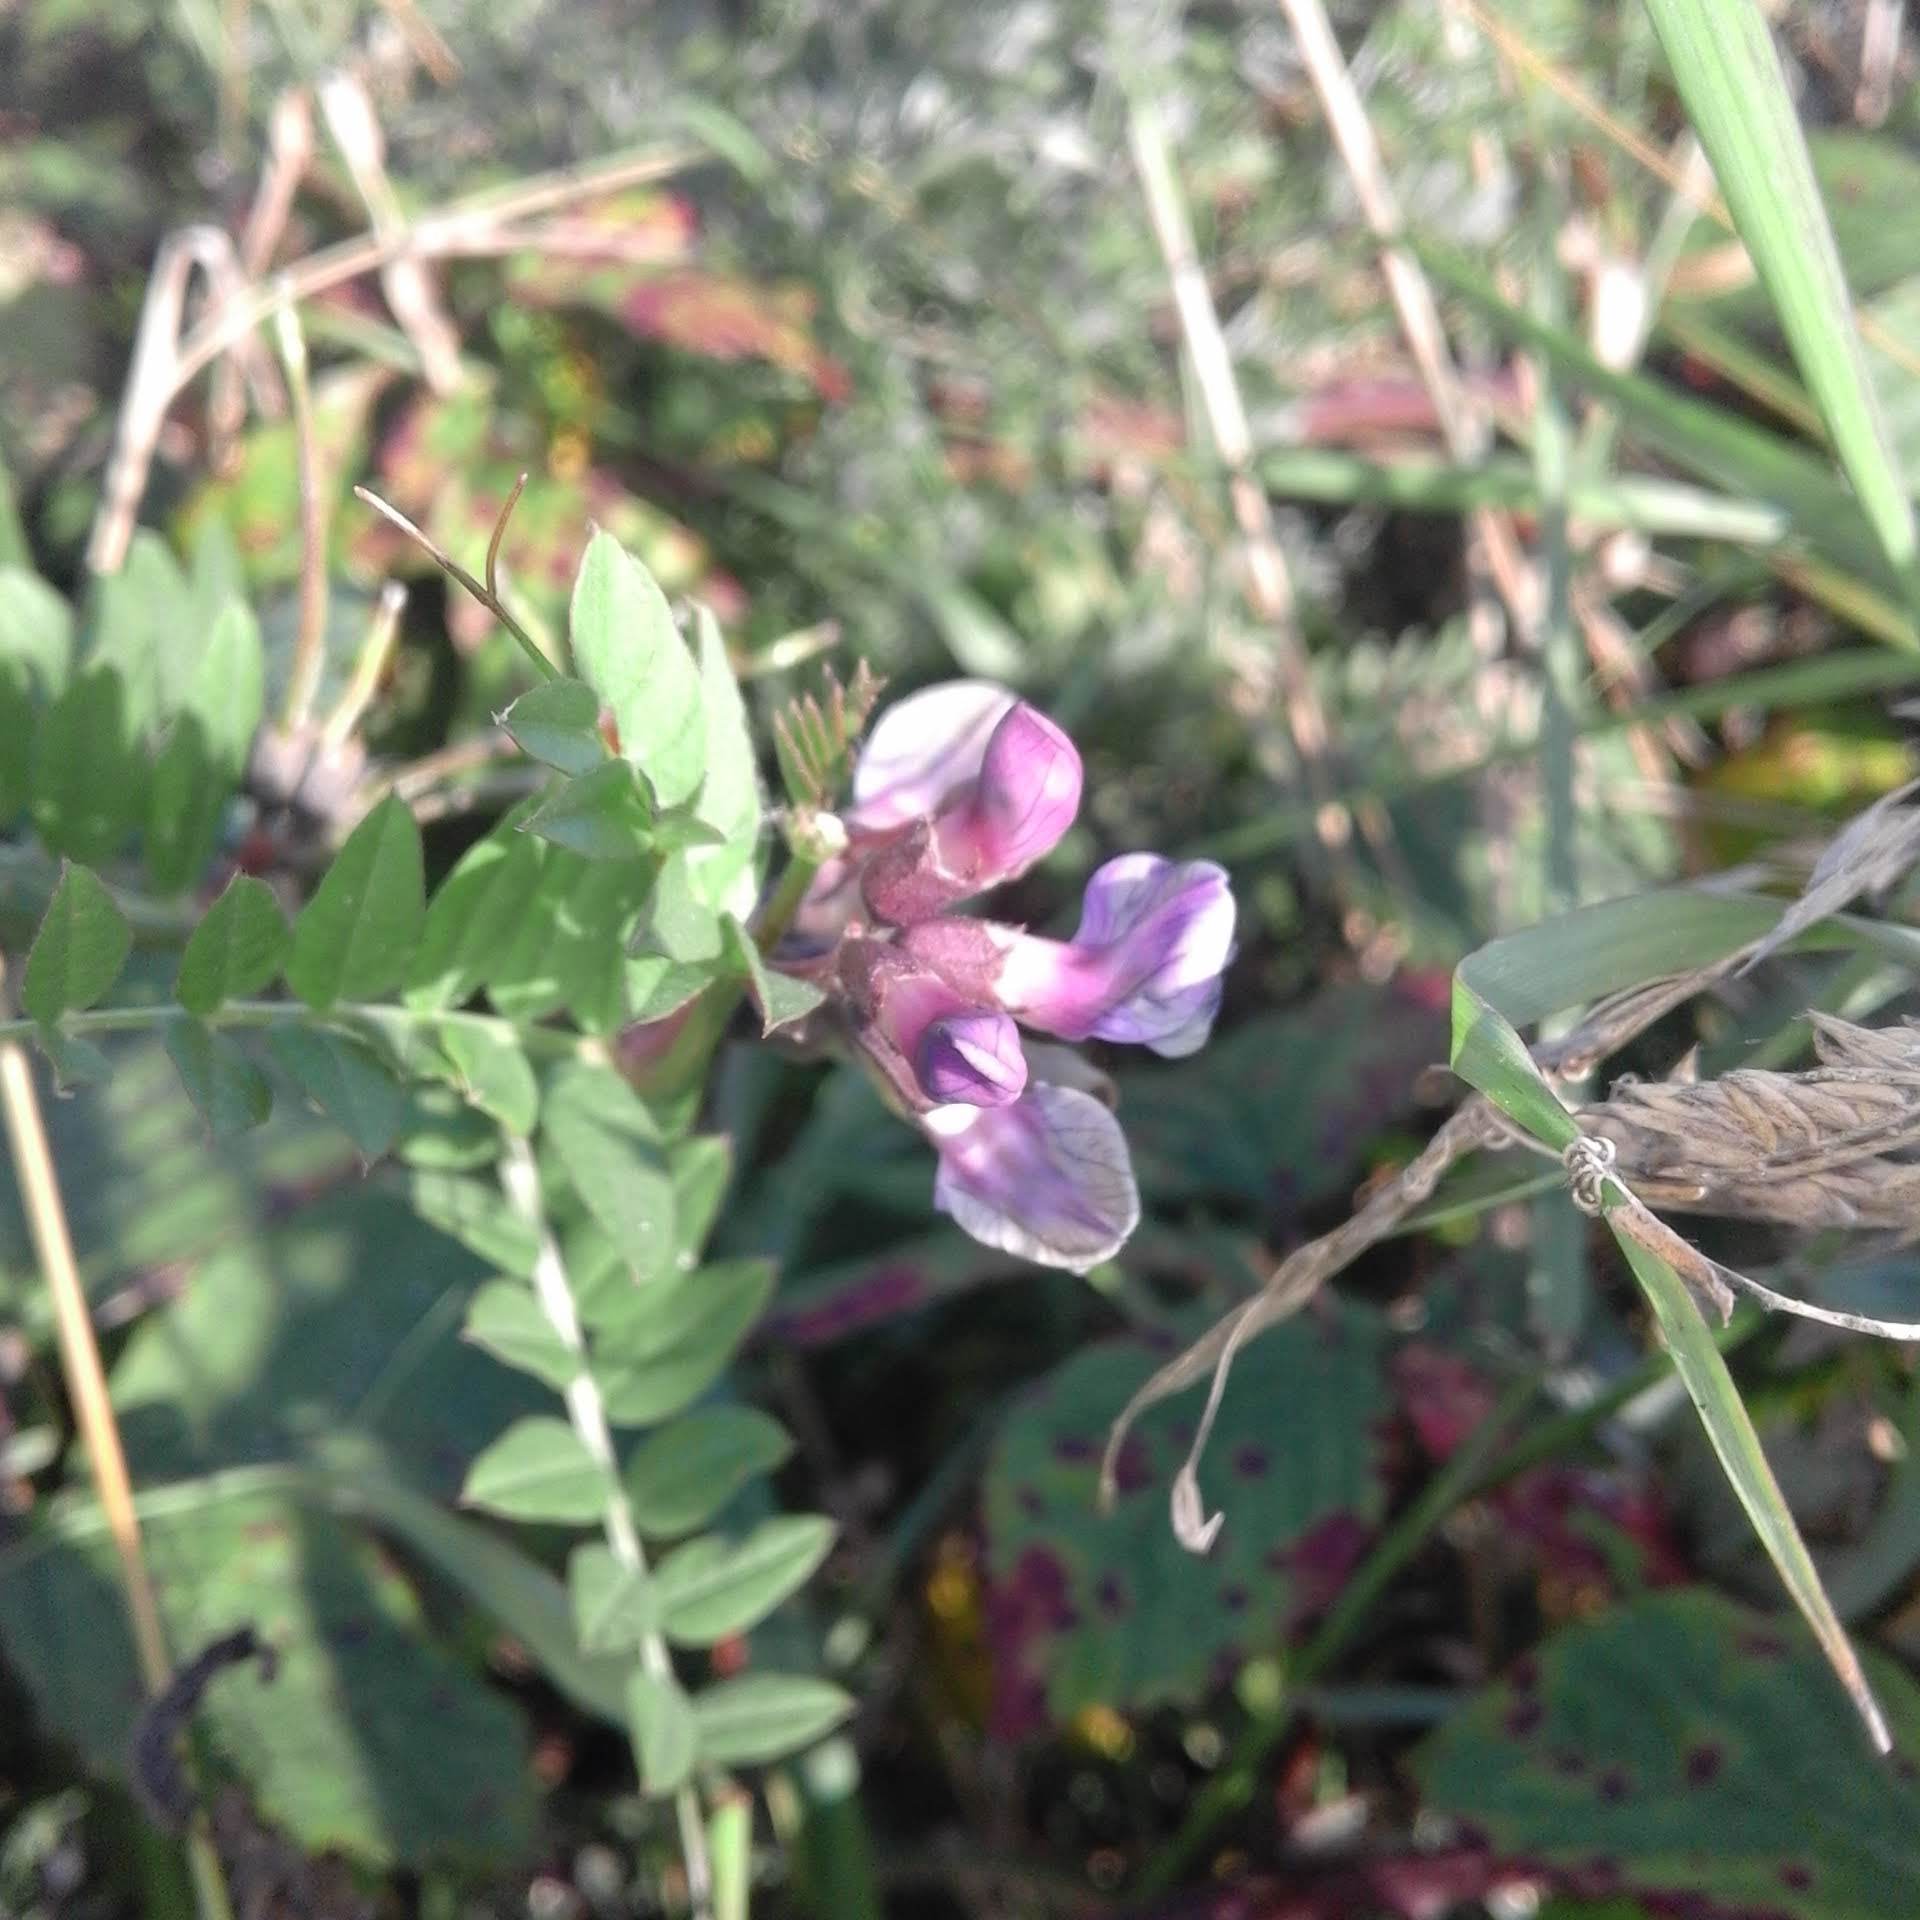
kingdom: Plantae
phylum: Tracheophyta
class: Magnoliopsida
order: Fabales
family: Fabaceae
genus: Vicia
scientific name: Vicia sepium
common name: Bush vetch
